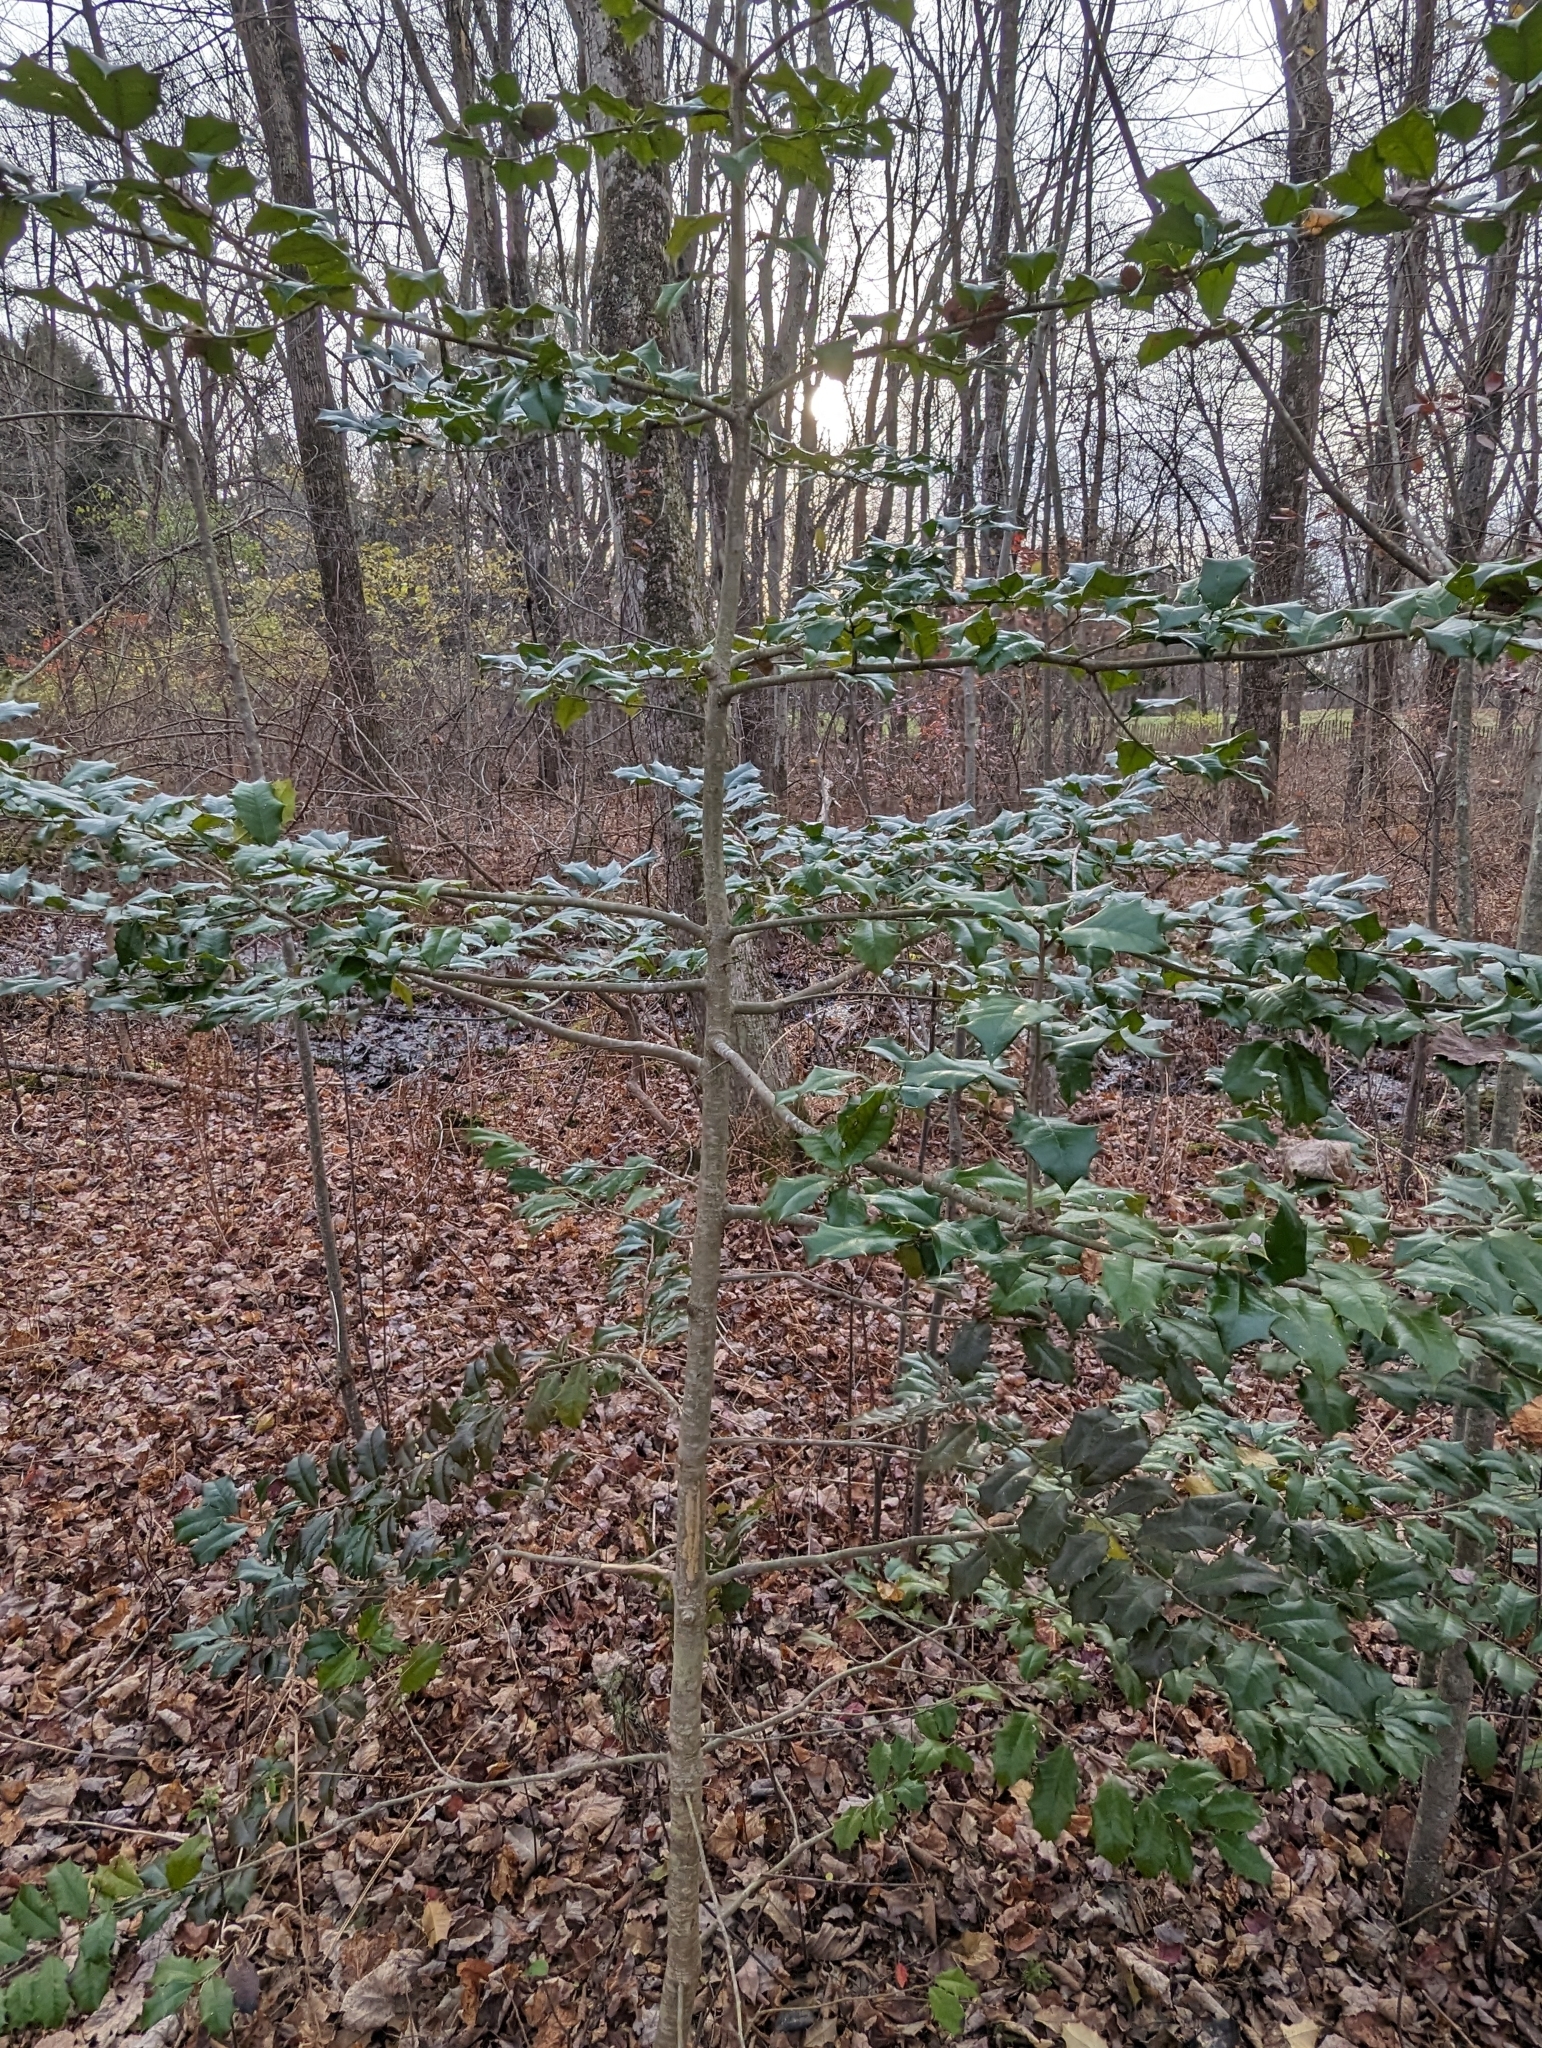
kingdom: Plantae
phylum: Tracheophyta
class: Magnoliopsida
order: Aquifoliales
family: Aquifoliaceae
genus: Ilex
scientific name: Ilex opaca
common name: American holly
